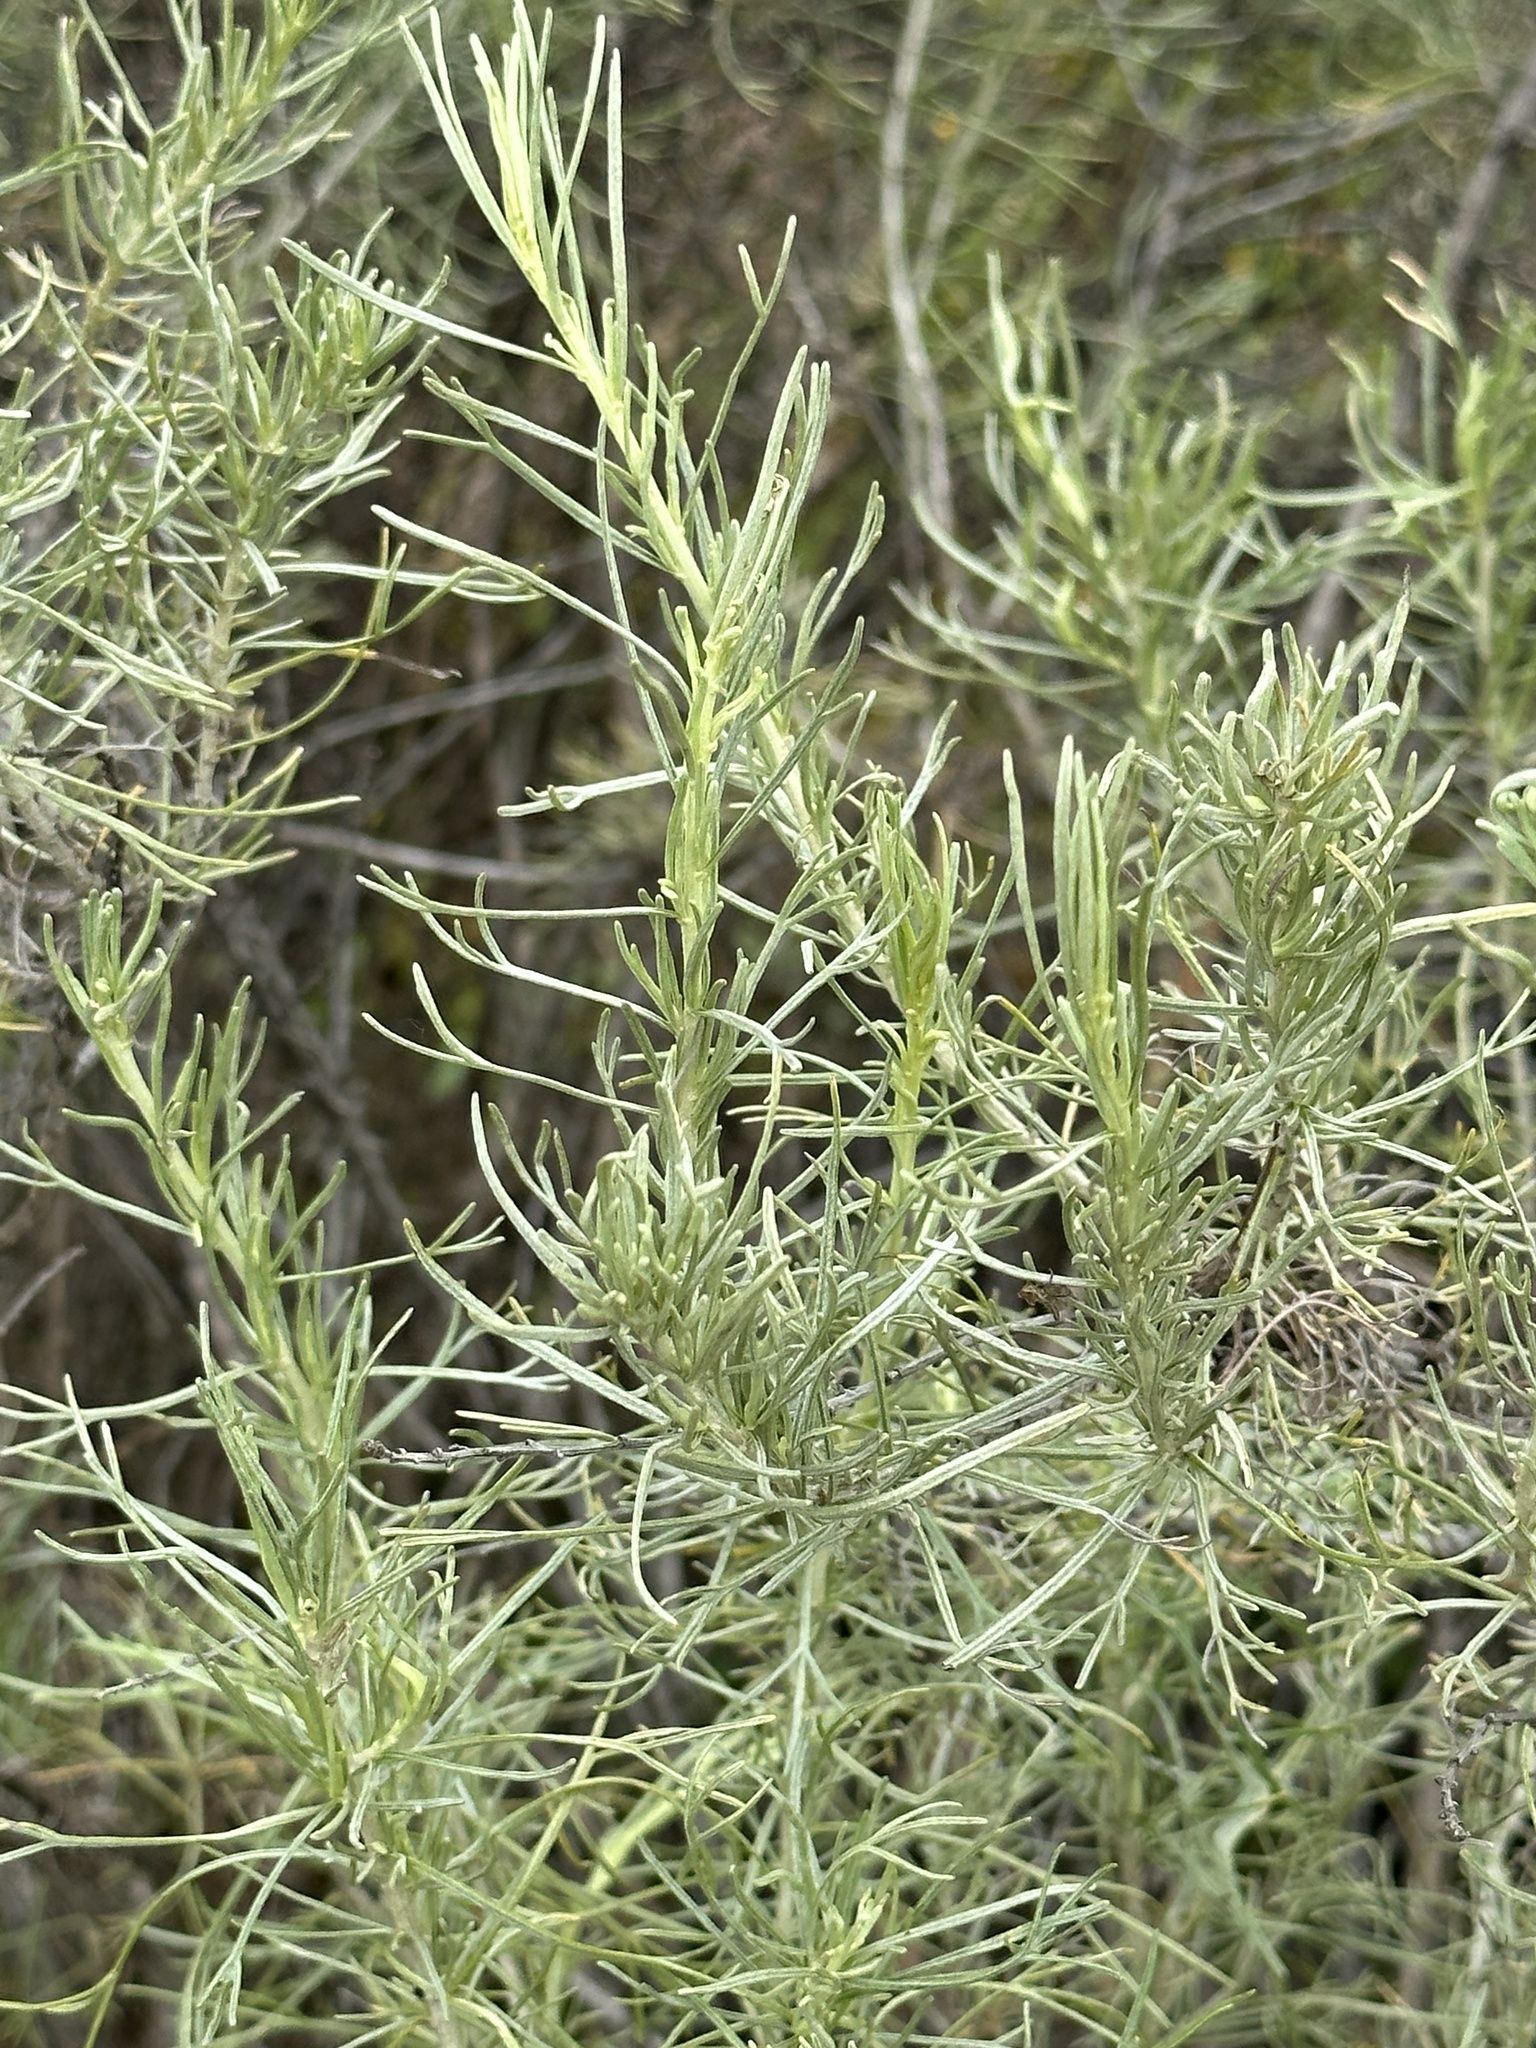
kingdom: Plantae
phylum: Tracheophyta
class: Magnoliopsida
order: Asterales
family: Asteraceae
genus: Artemisia
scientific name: Artemisia californica
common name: California sagebrush
